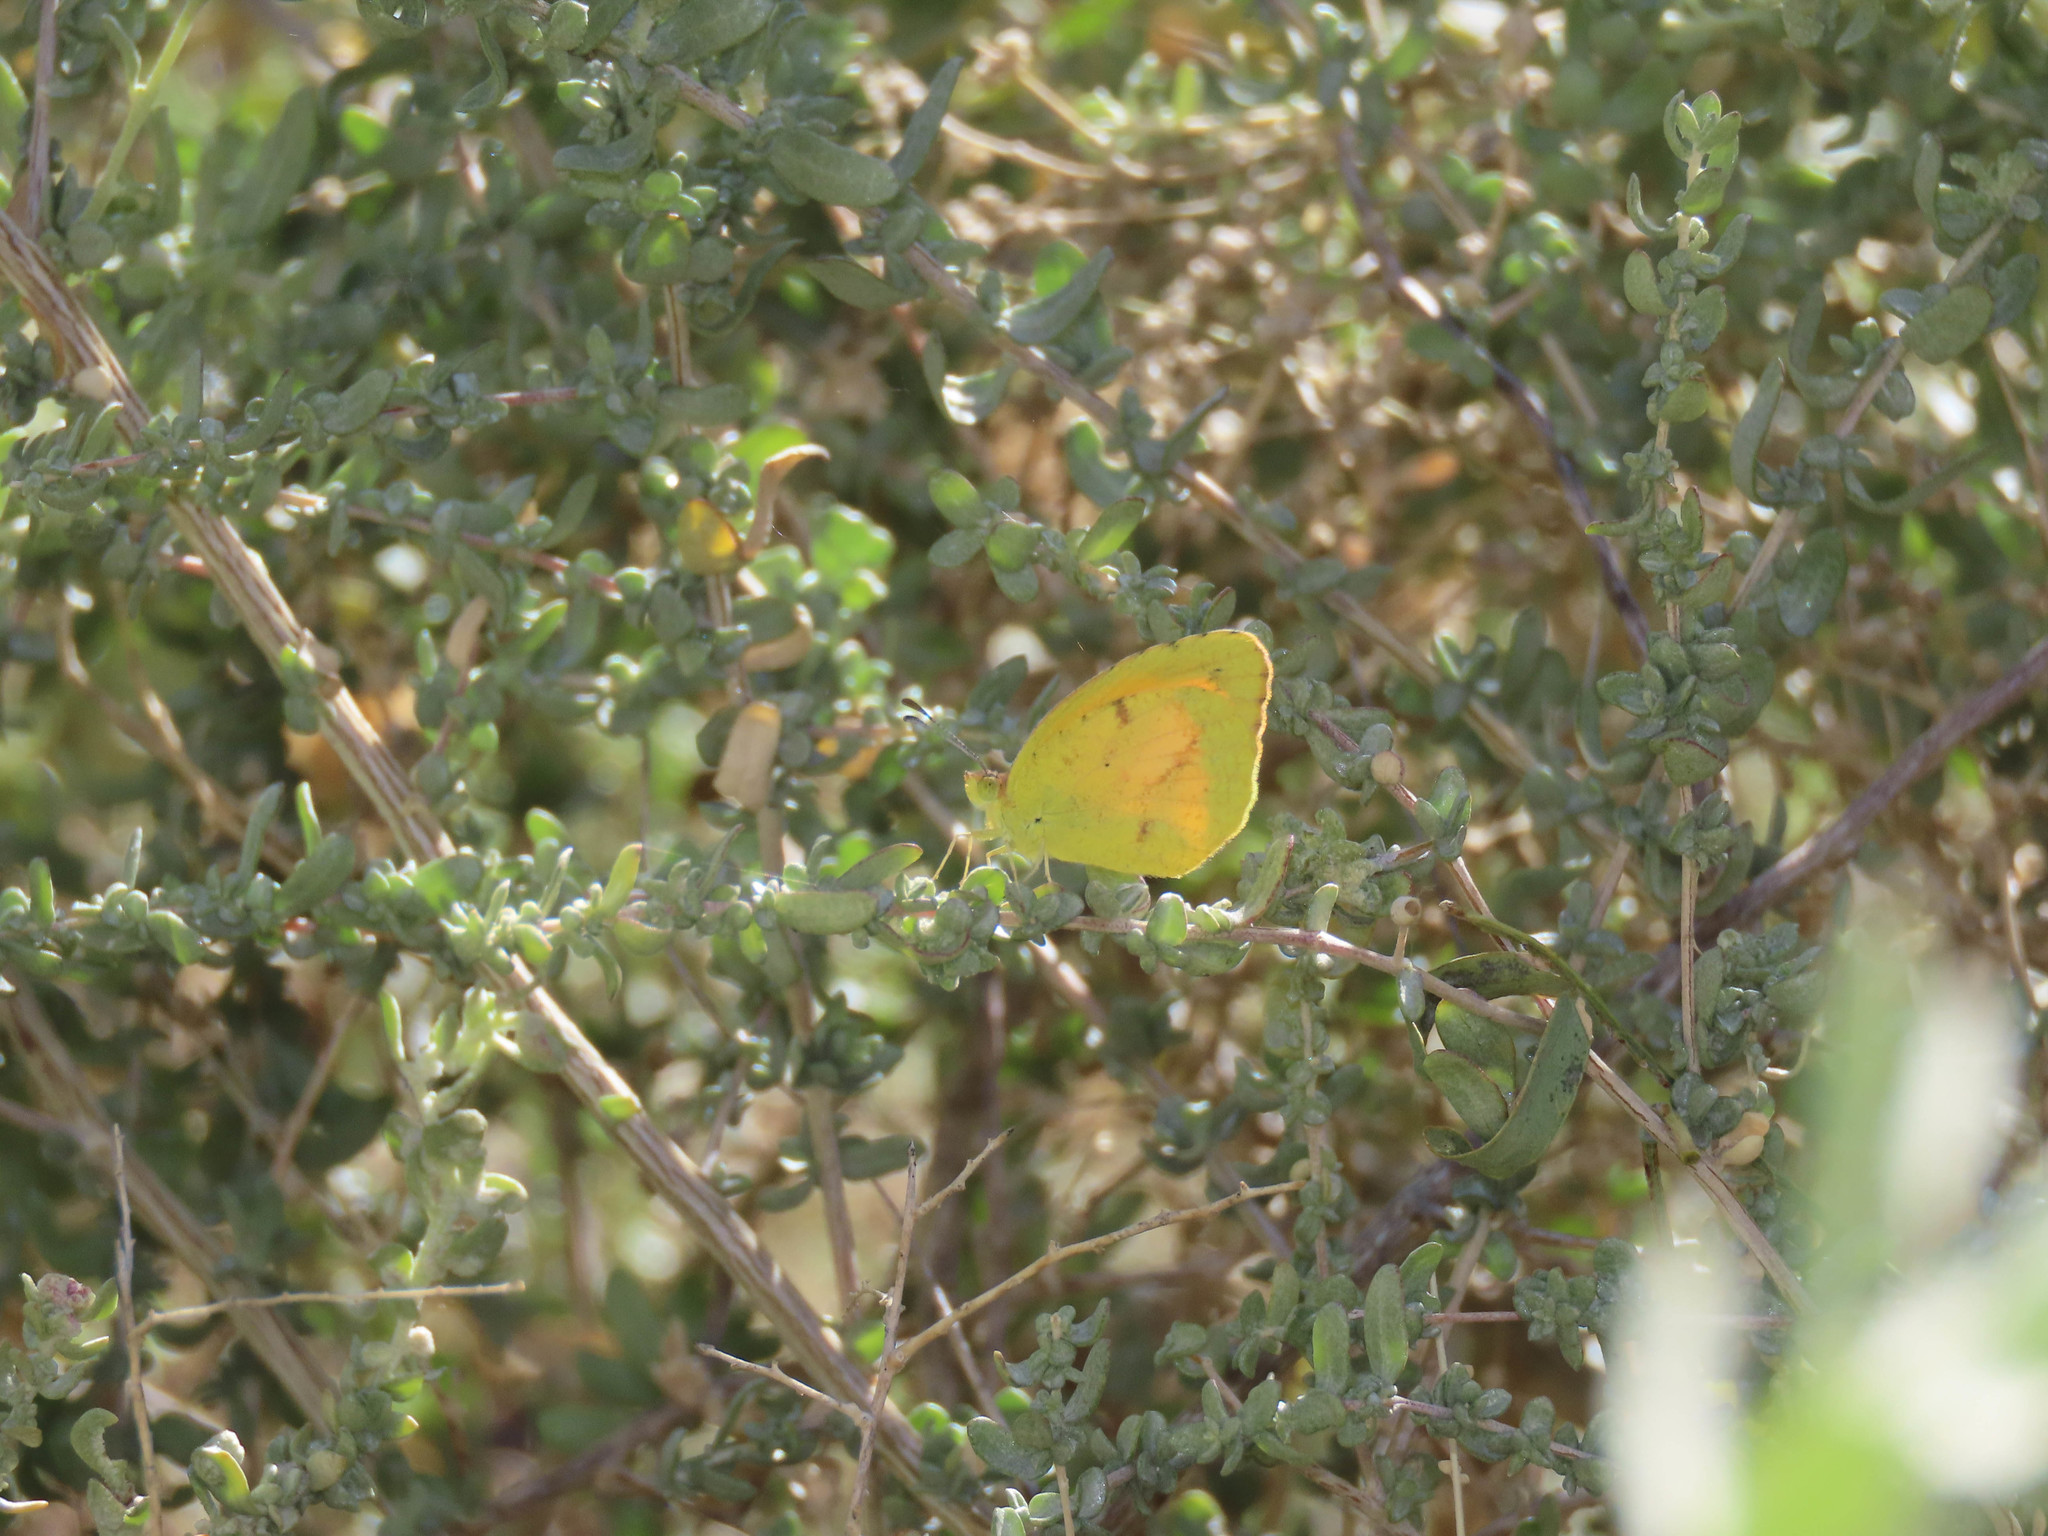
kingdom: Animalia
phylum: Arthropoda
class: Insecta
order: Lepidoptera
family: Pieridae
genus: Abaeis
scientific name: Abaeis nicippe
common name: Sleepy orange
